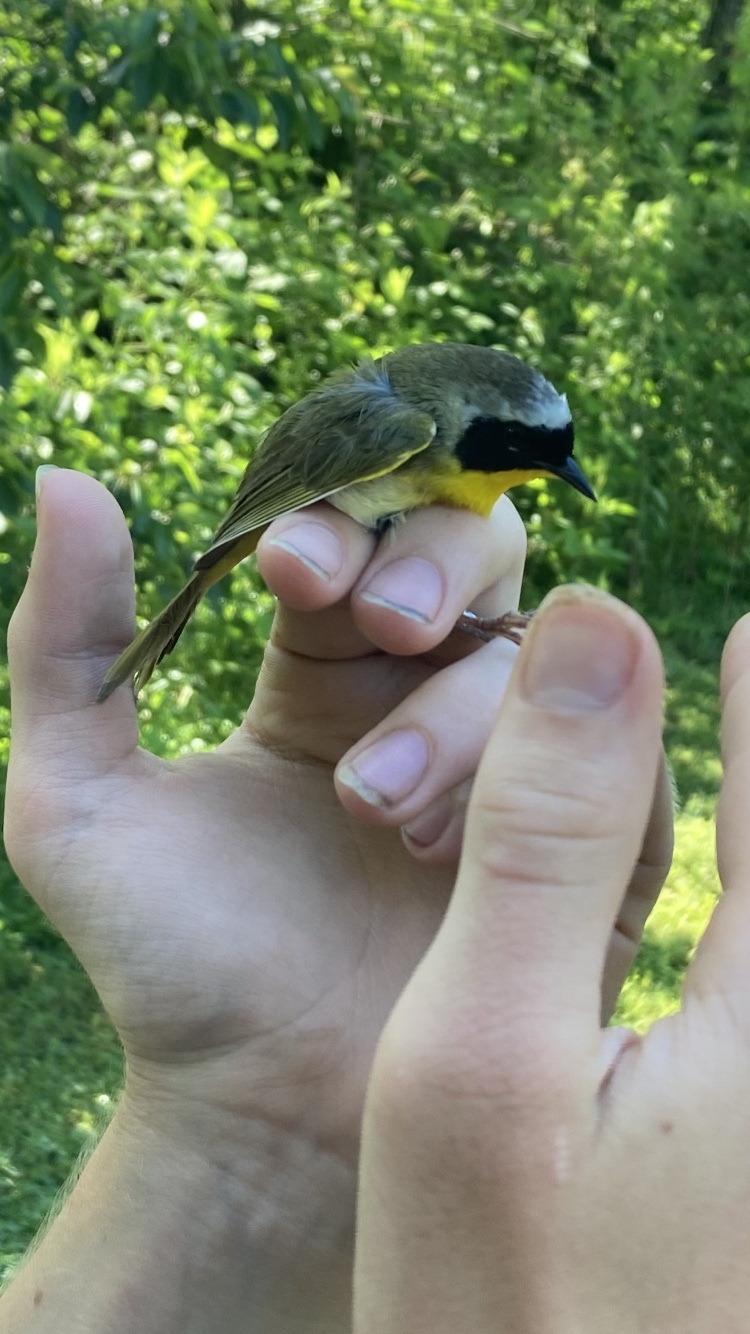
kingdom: Animalia
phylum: Chordata
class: Aves
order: Passeriformes
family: Parulidae
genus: Geothlypis
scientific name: Geothlypis trichas
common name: Common yellowthroat
